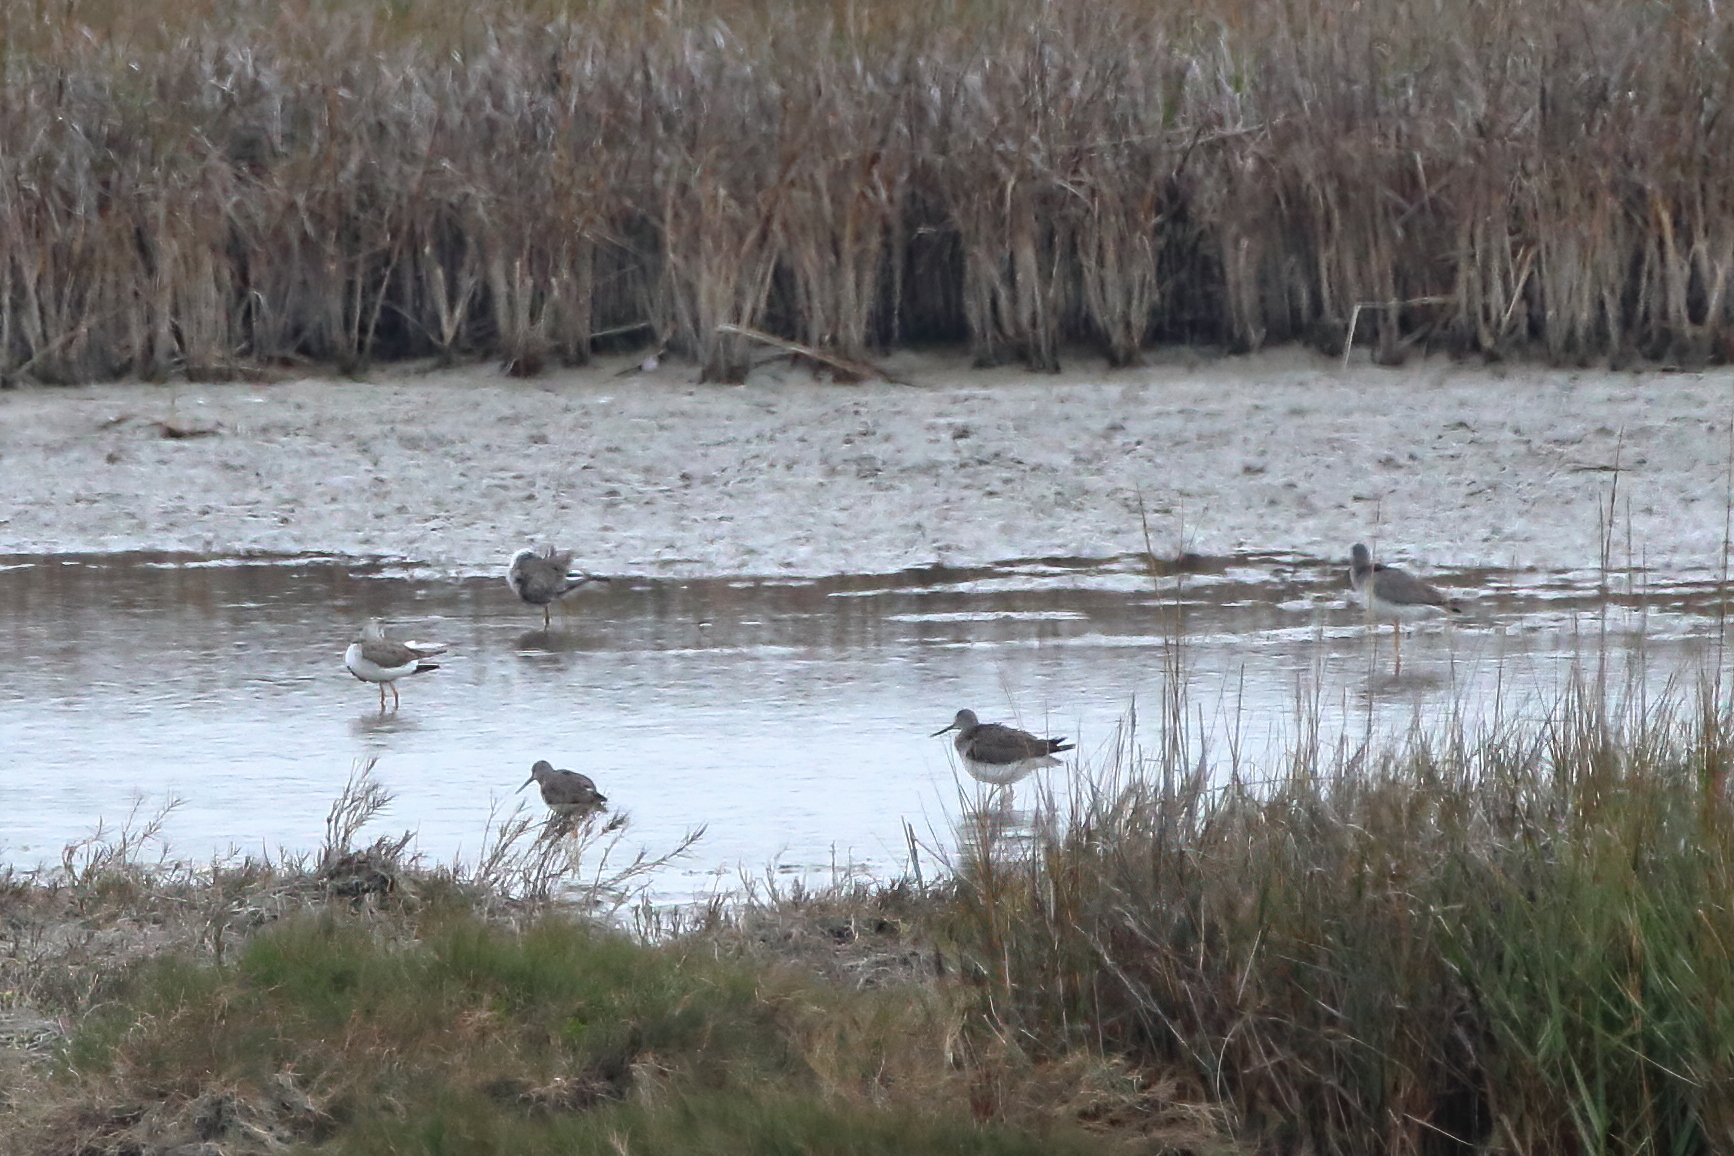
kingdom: Animalia
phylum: Chordata
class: Aves
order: Charadriiformes
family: Scolopacidae
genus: Tringa
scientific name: Tringa melanoleuca
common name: Greater yellowlegs
